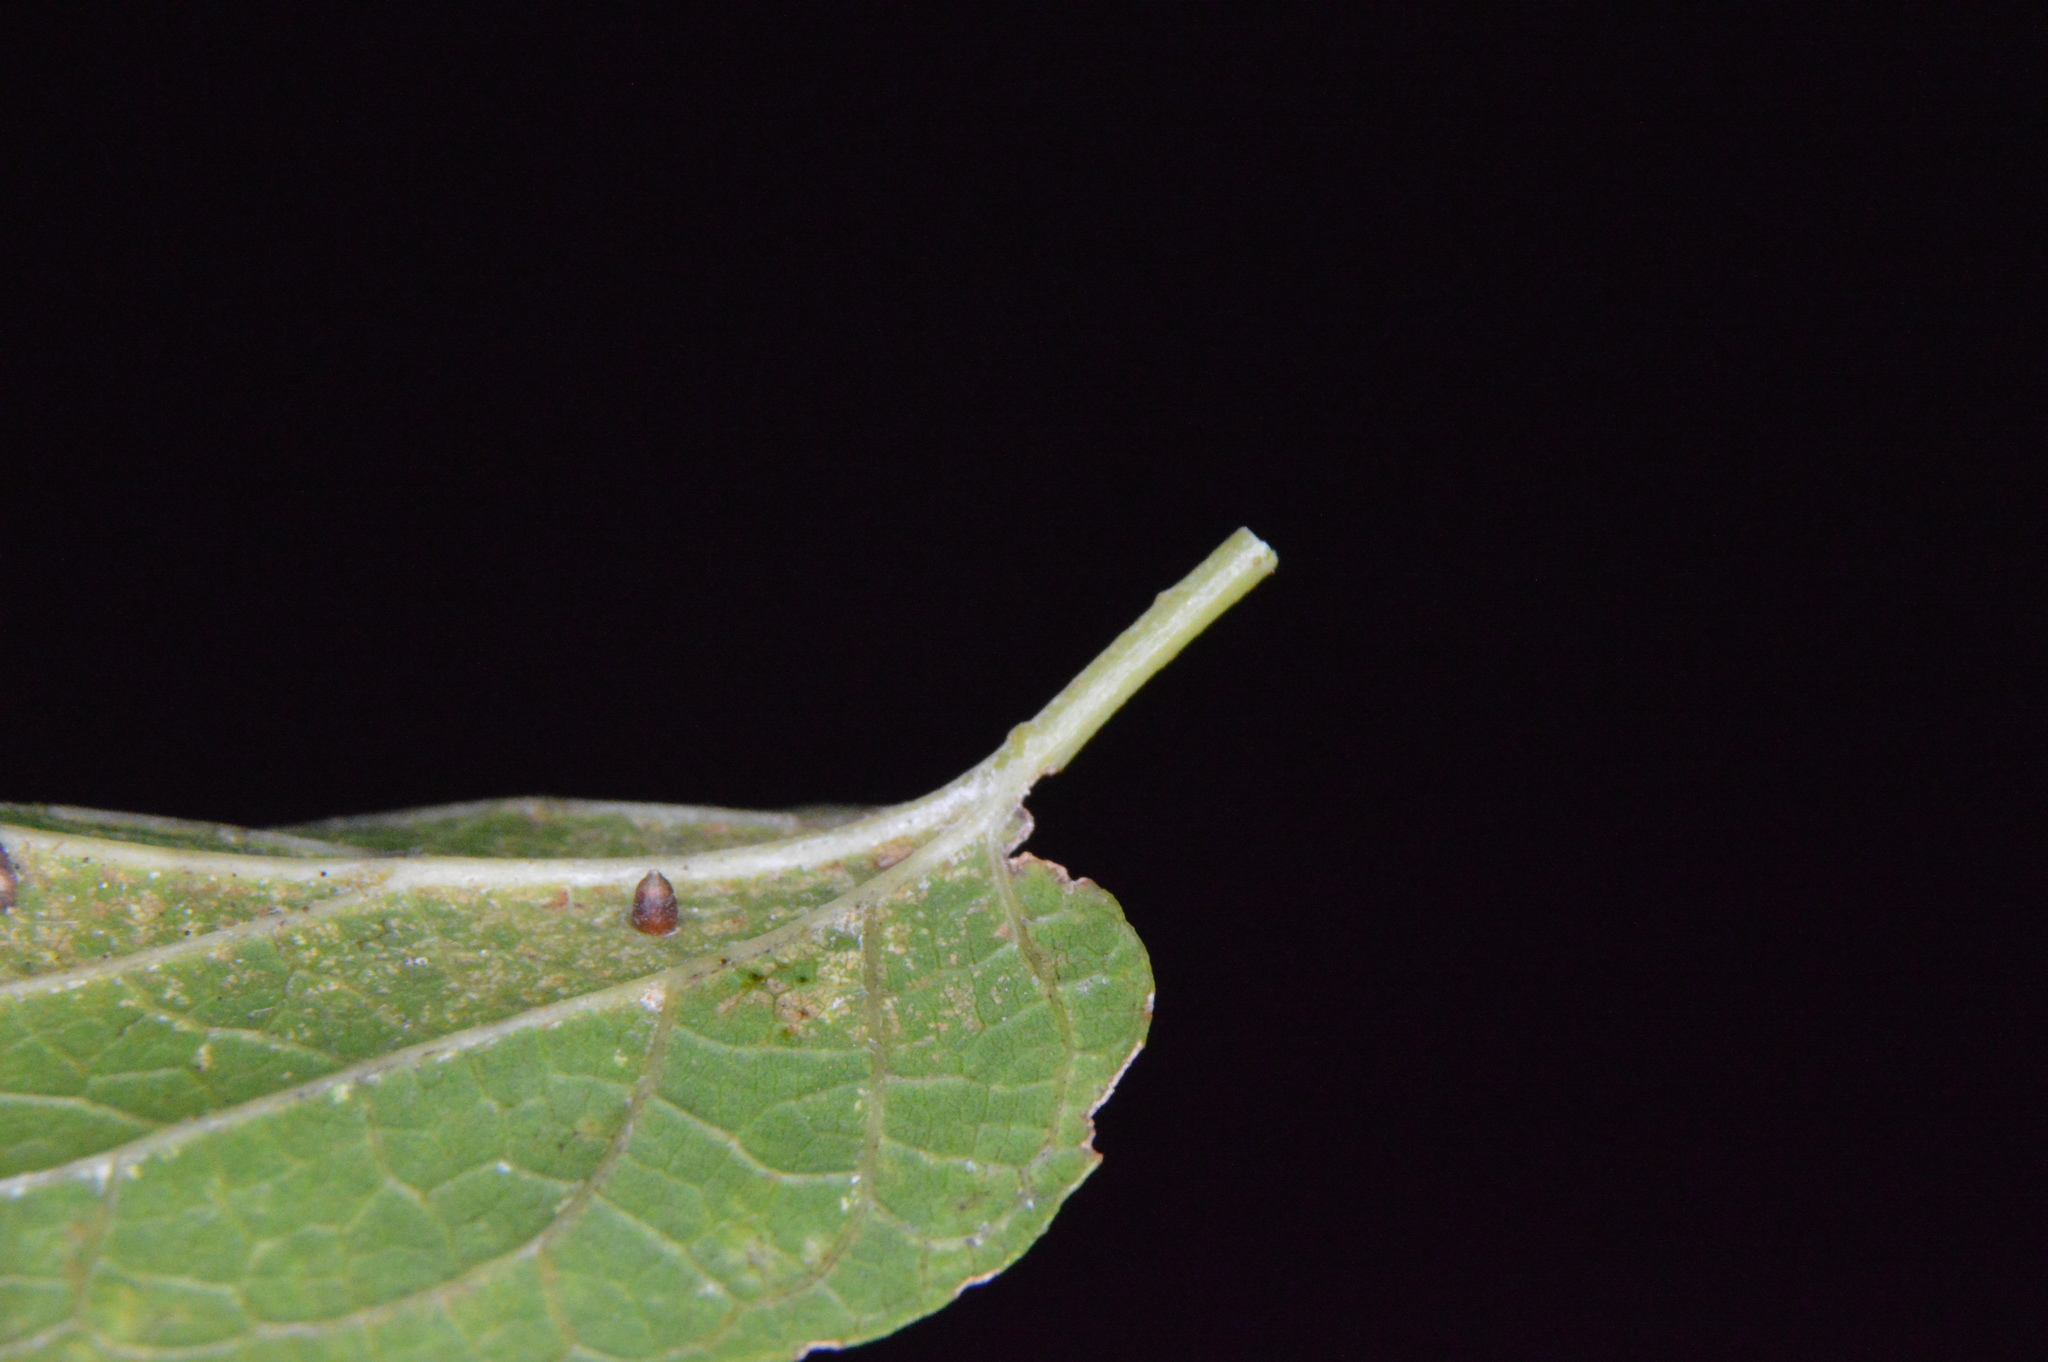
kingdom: Animalia
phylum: Arthropoda
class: Insecta
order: Diptera
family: Cecidomyiidae
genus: Celticecis
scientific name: Celticecis cupiformis
